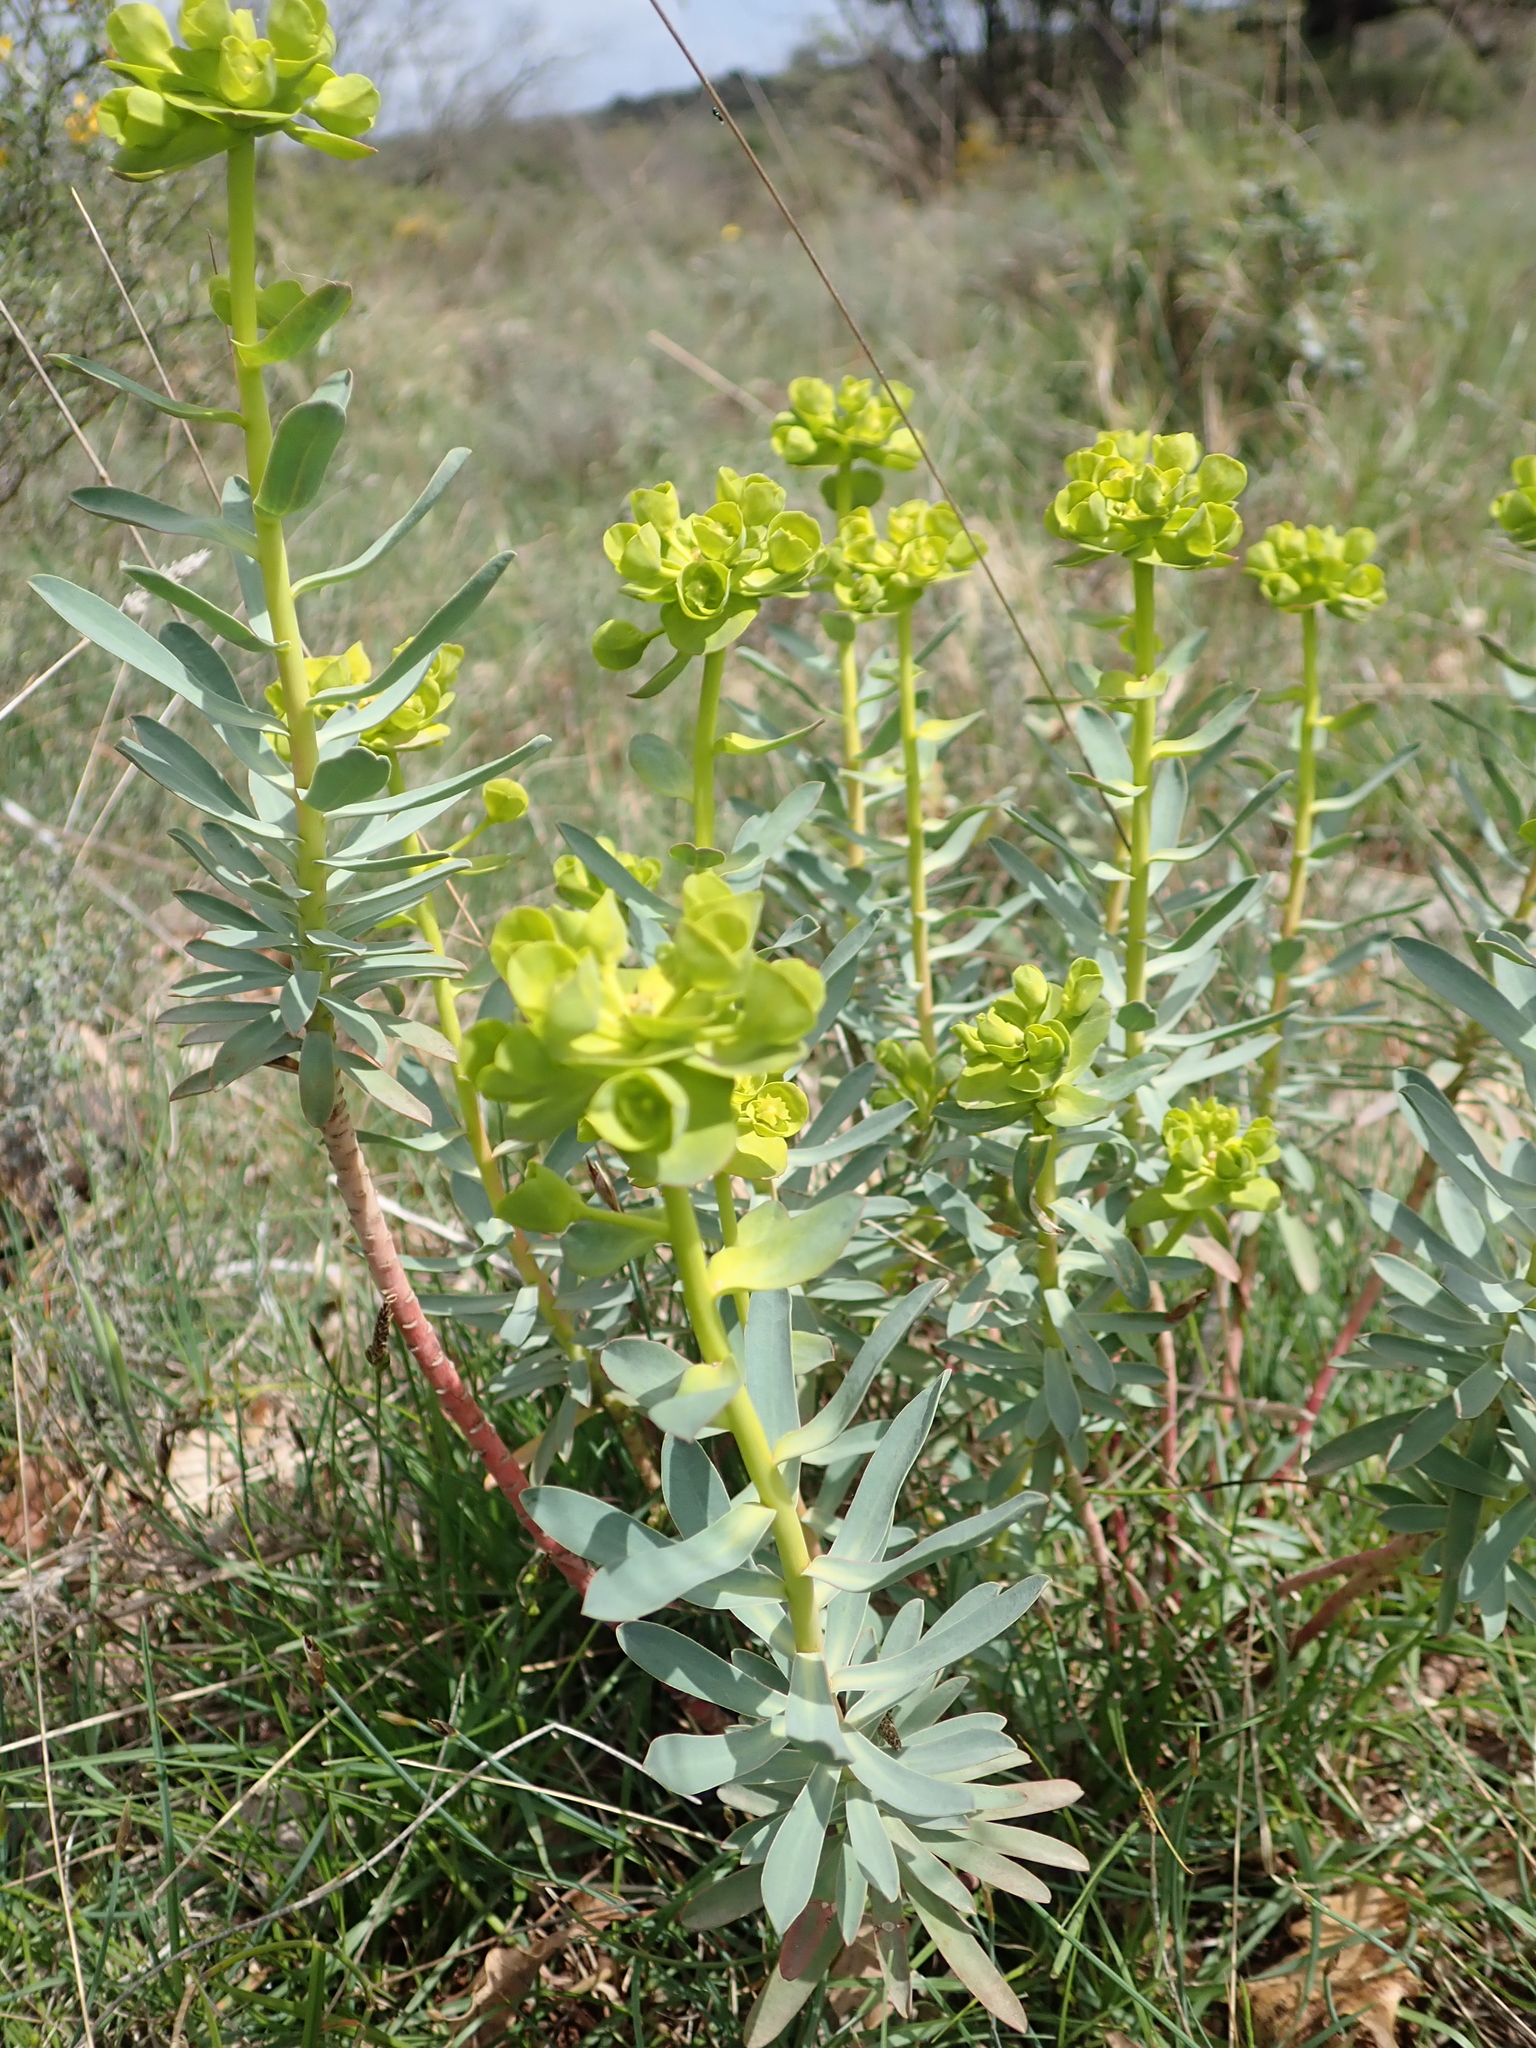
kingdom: Plantae
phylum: Tracheophyta
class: Magnoliopsida
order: Malpighiales
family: Euphorbiaceae
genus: Euphorbia
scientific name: Euphorbia nicaeensis
